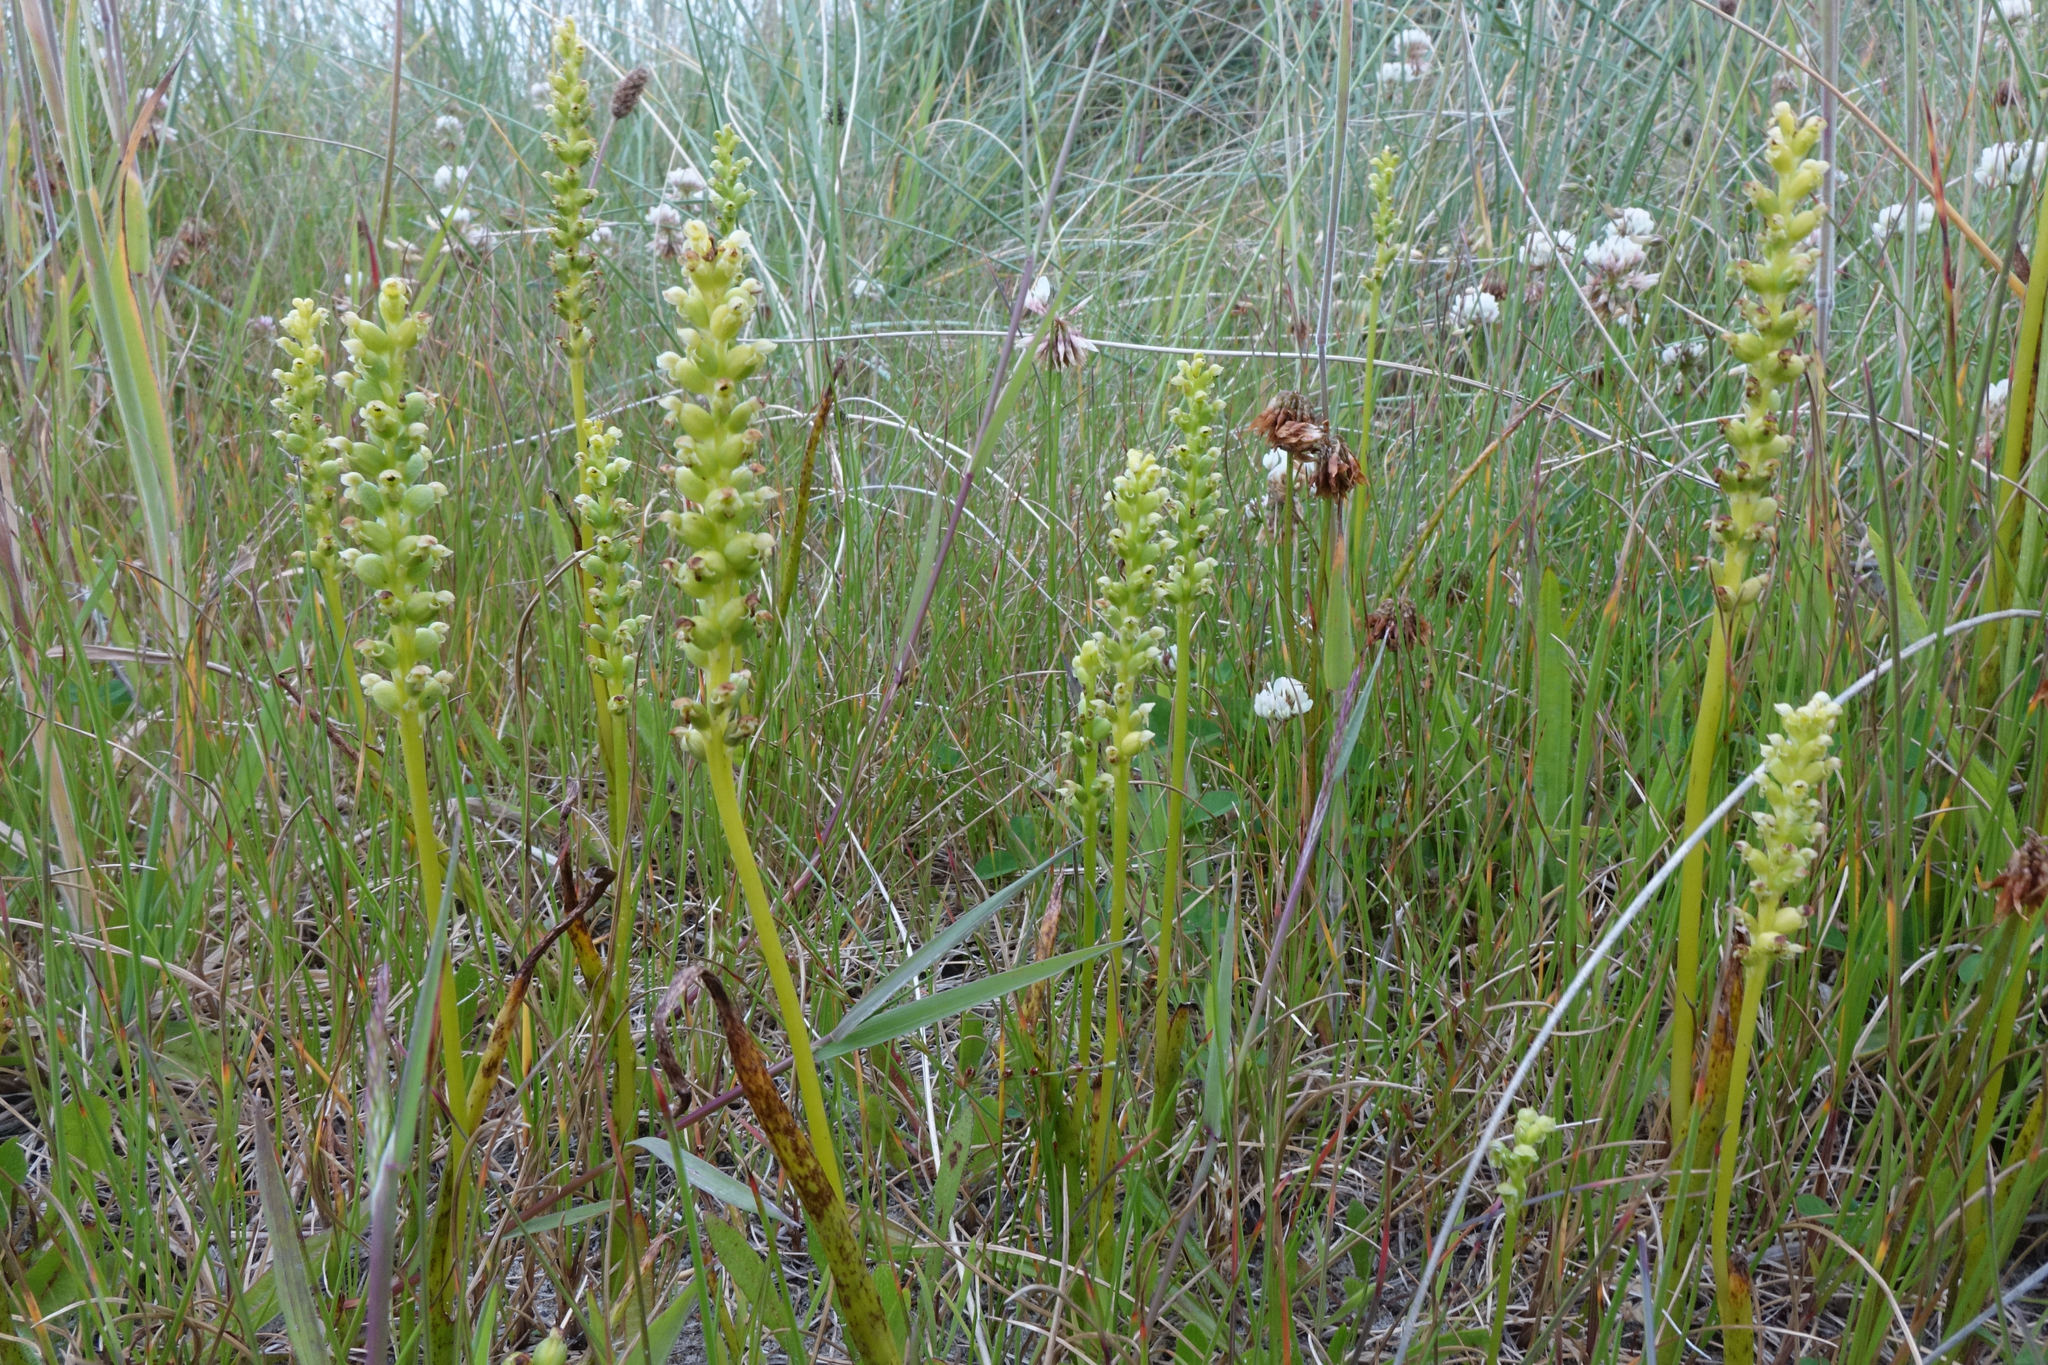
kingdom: Plantae
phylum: Tracheophyta
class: Liliopsida
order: Asparagales
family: Orchidaceae
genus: Microtis
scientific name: Microtis unifolia
